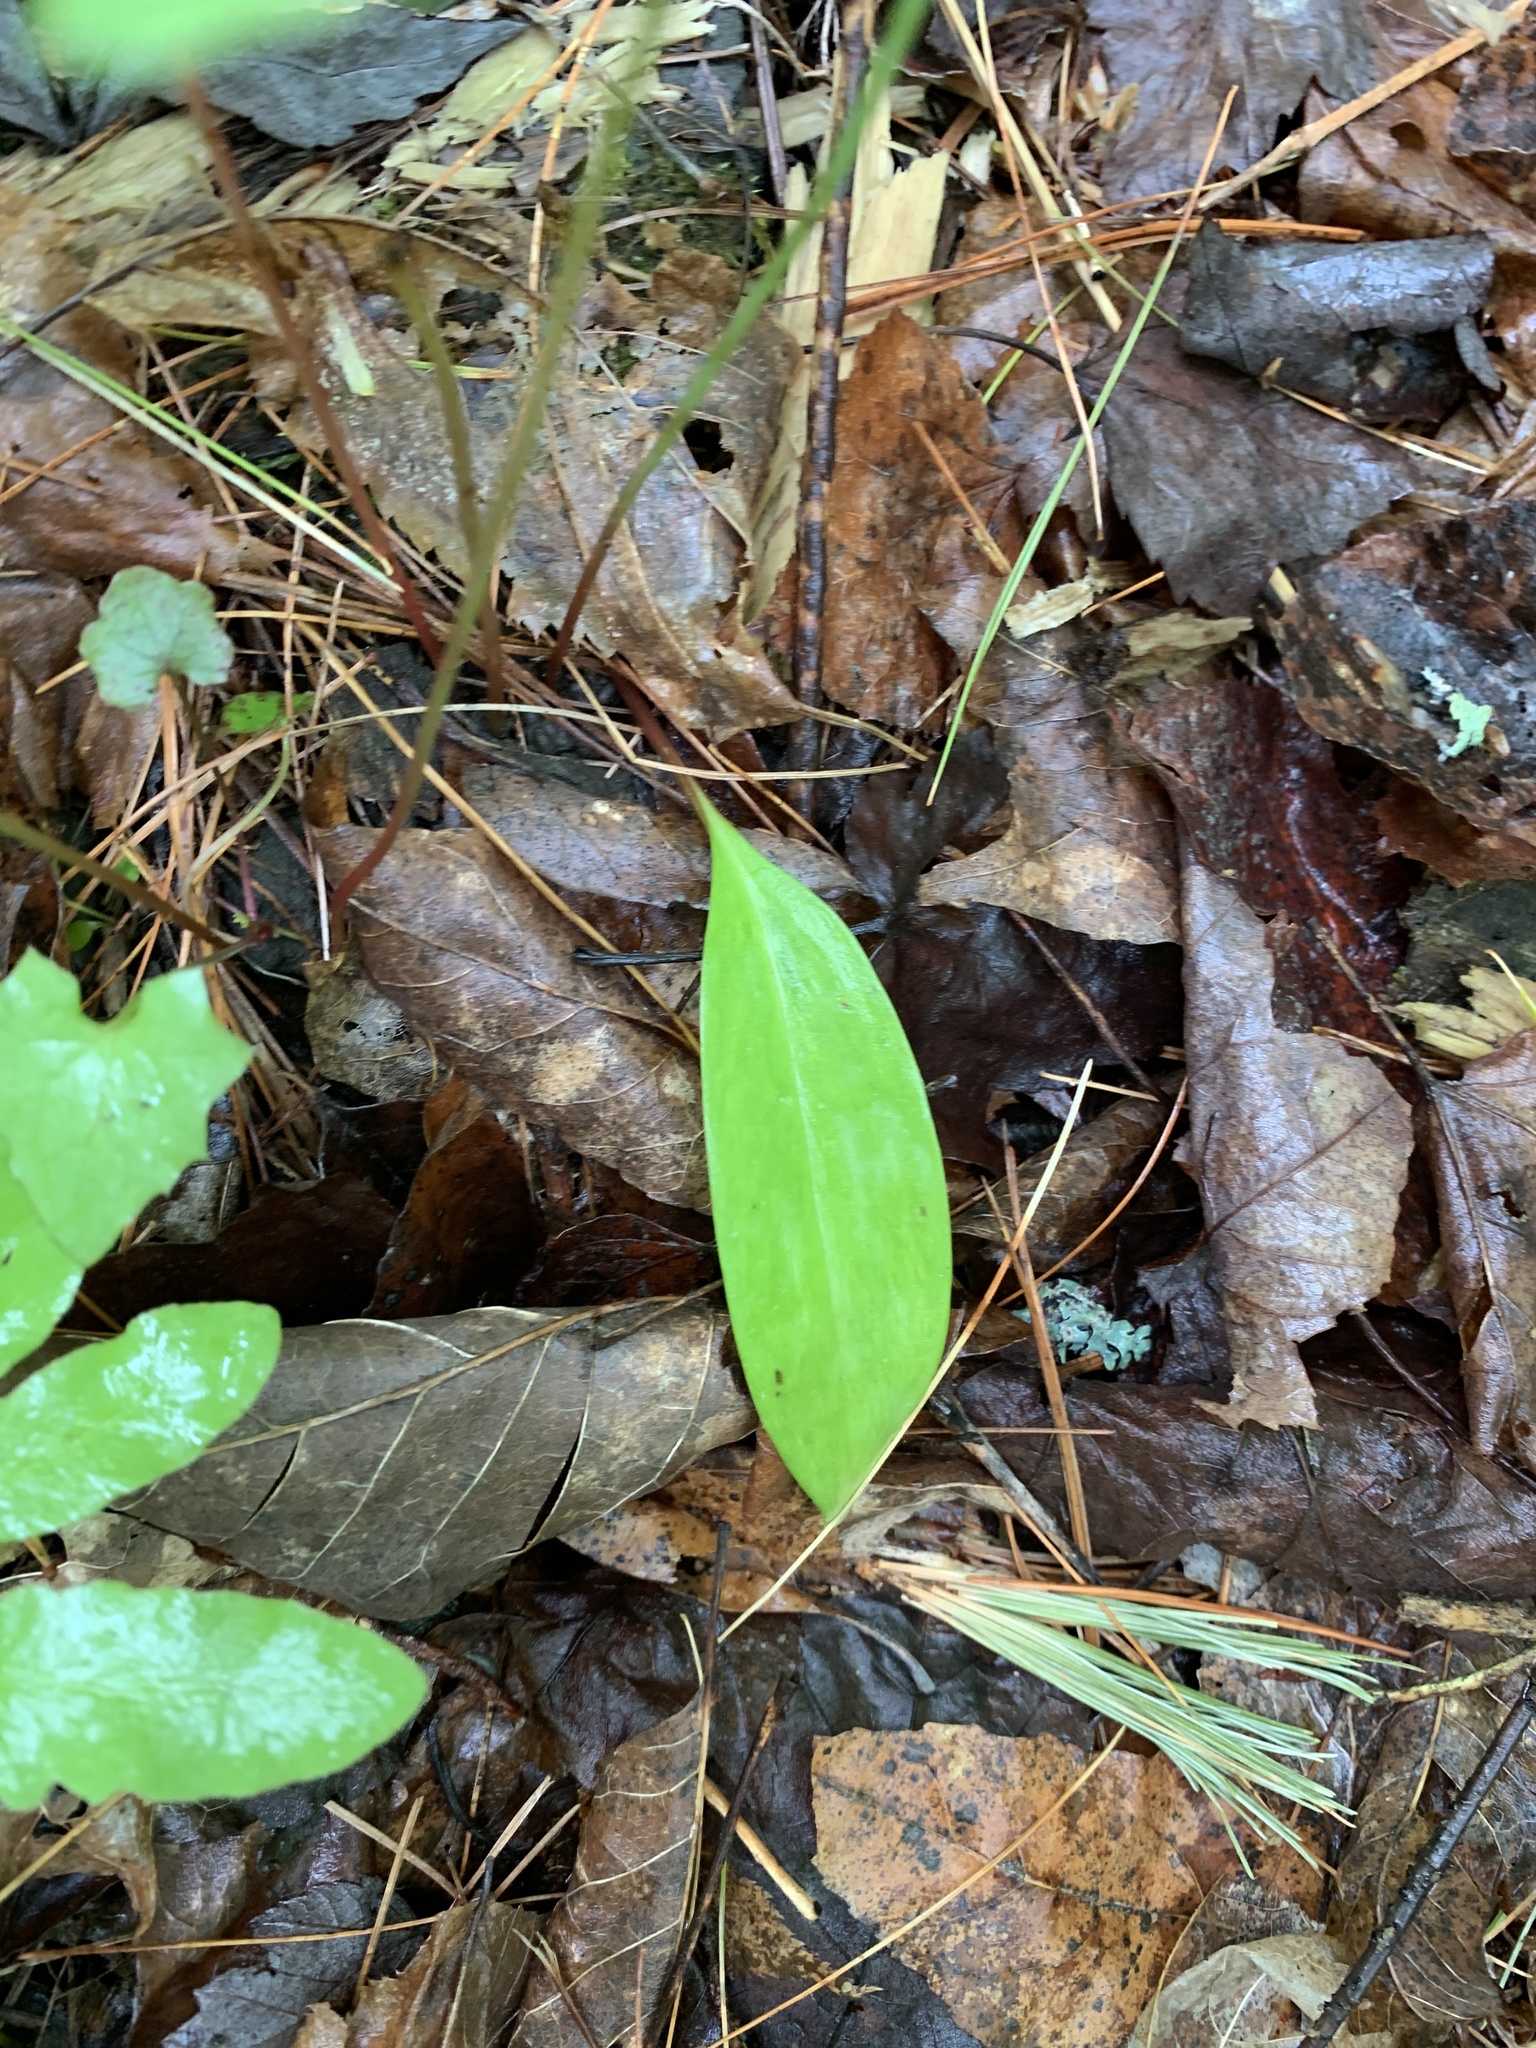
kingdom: Plantae
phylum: Tracheophyta
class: Liliopsida
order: Liliales
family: Liliaceae
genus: Erythronium
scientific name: Erythronium americanum
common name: Yellow adder's-tongue
